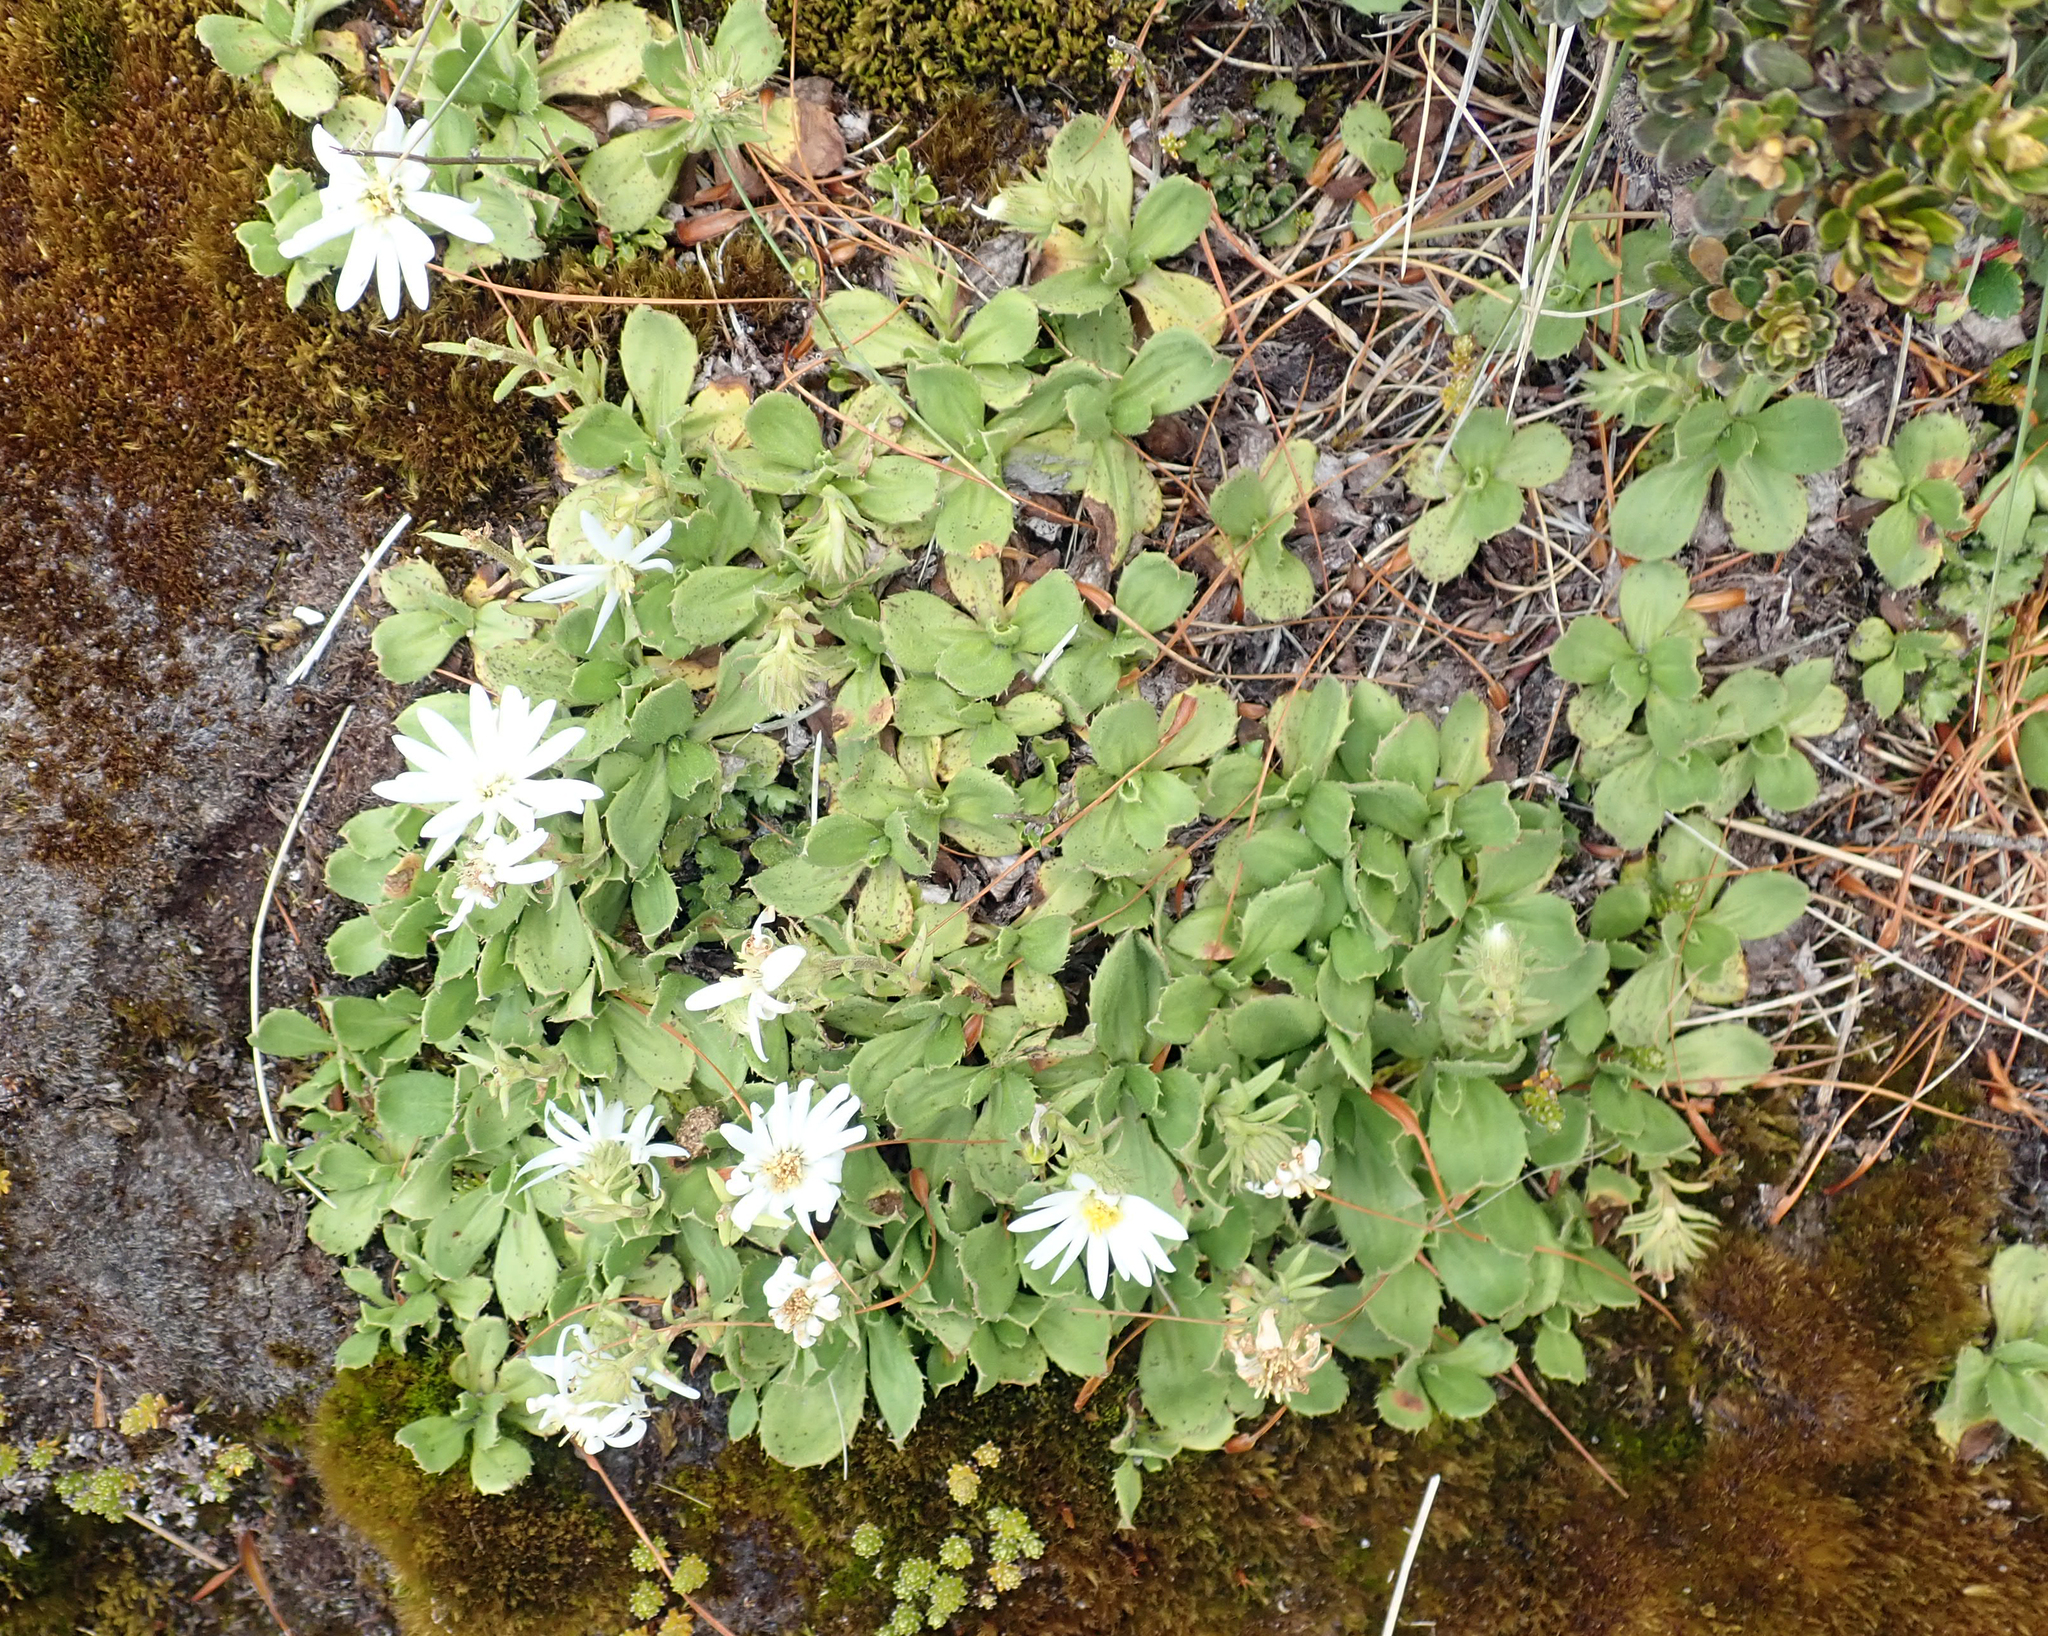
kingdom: Plantae
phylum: Tracheophyta
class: Magnoliopsida
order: Asterales
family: Asteraceae
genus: Celmisia
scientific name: Celmisia glandulosa
